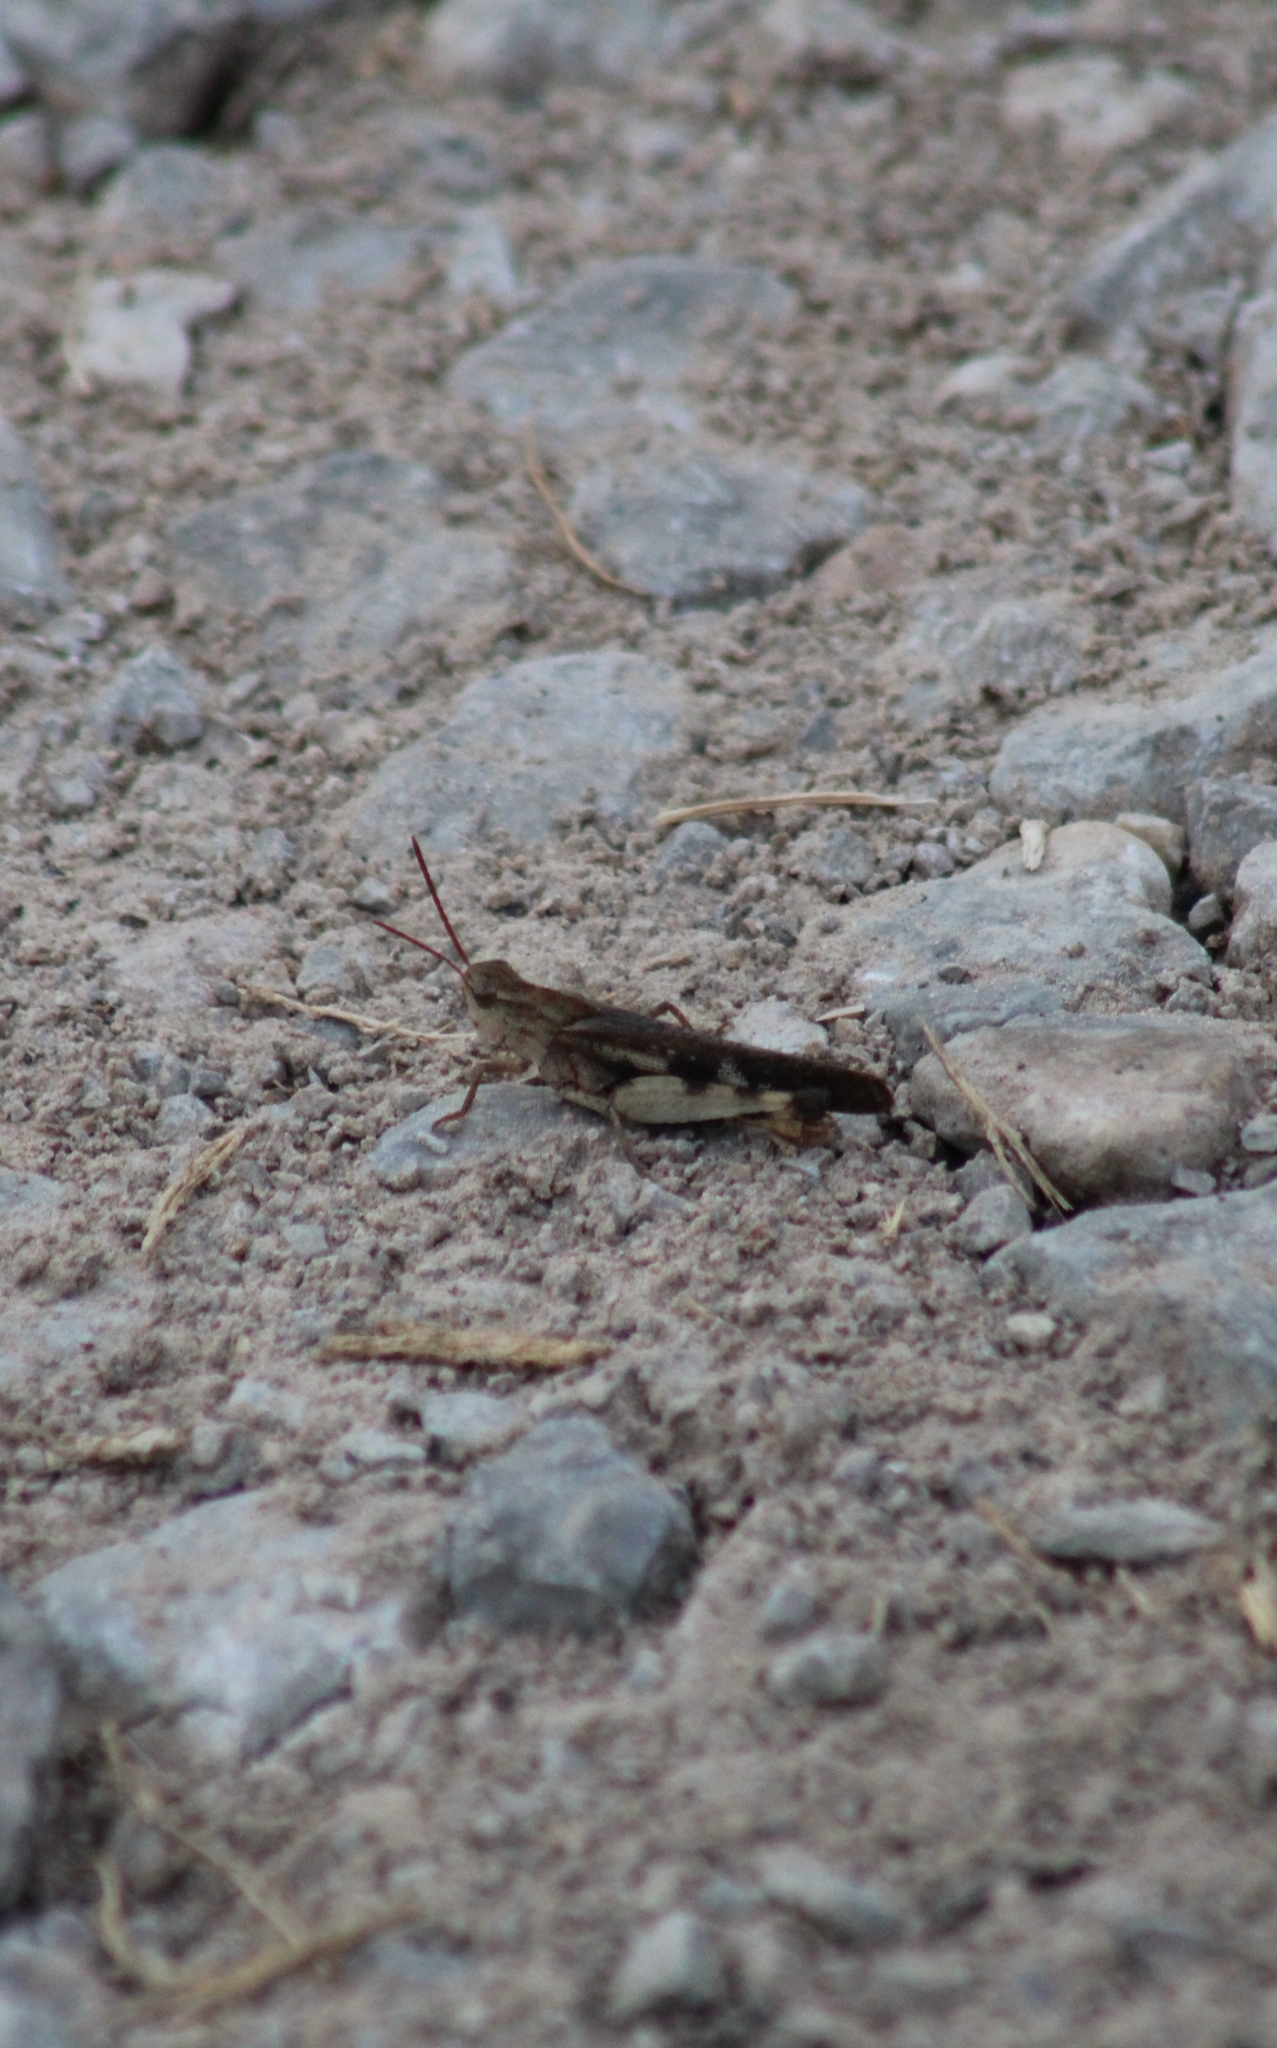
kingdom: Animalia
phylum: Arthropoda
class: Insecta
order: Orthoptera
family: Acrididae
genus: Chortophaga
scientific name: Chortophaga viridifasciata
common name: Green-striped grasshopper
